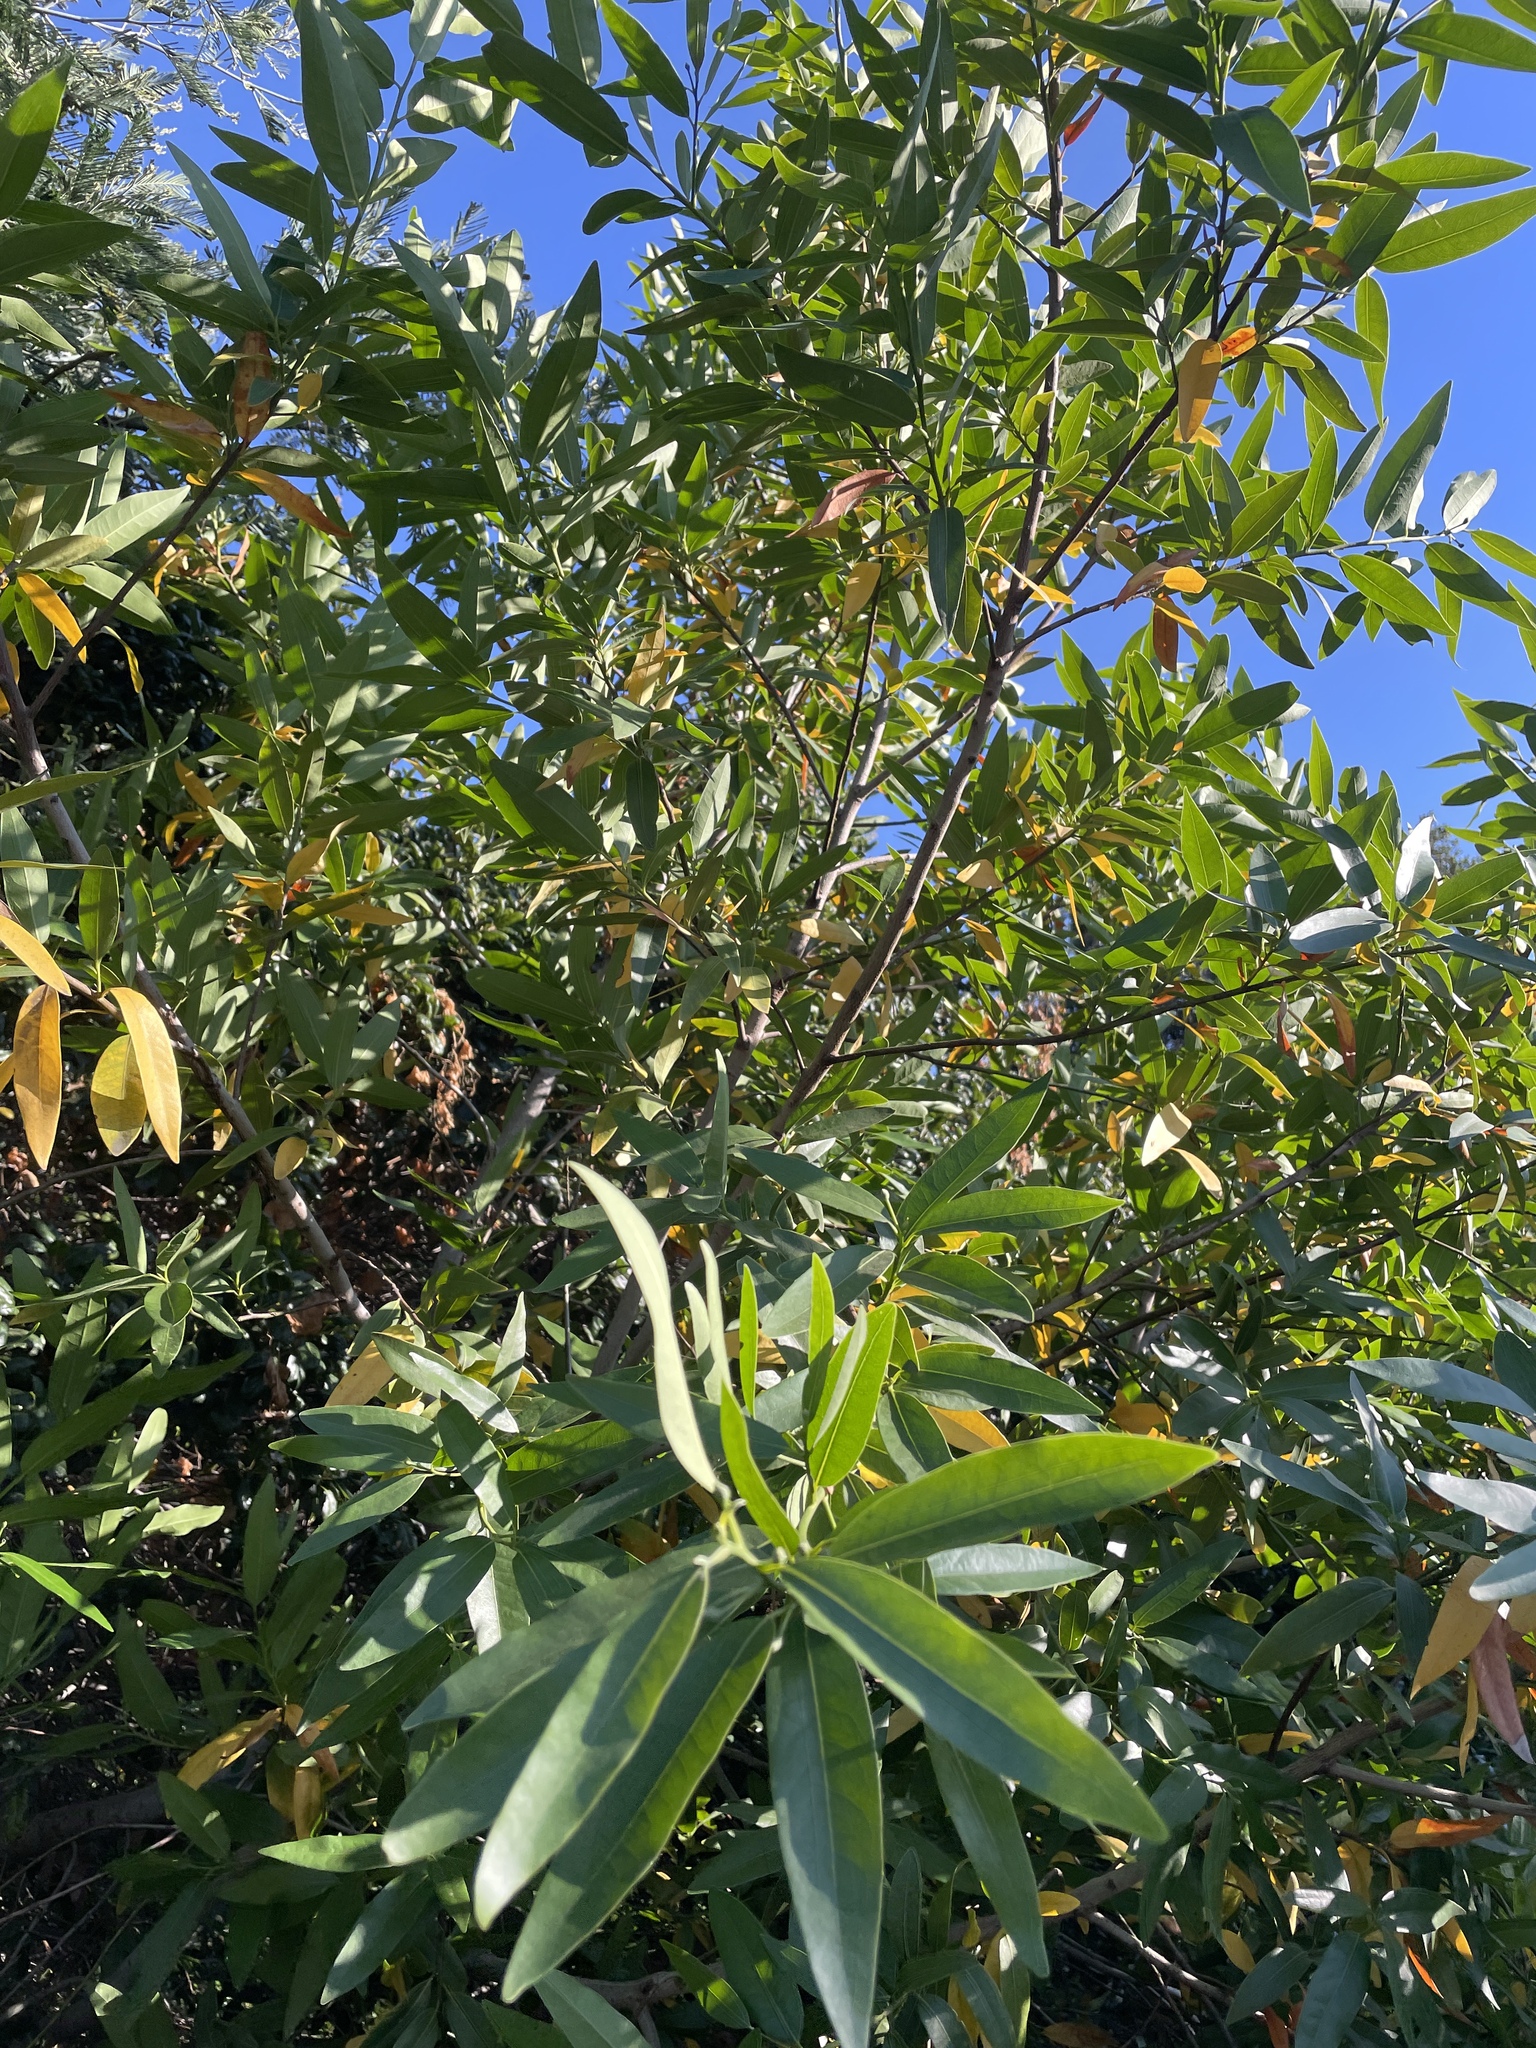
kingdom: Plantae
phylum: Tracheophyta
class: Magnoliopsida
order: Laurales
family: Lauraceae
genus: Umbellularia
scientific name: Umbellularia californica
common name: California bay
